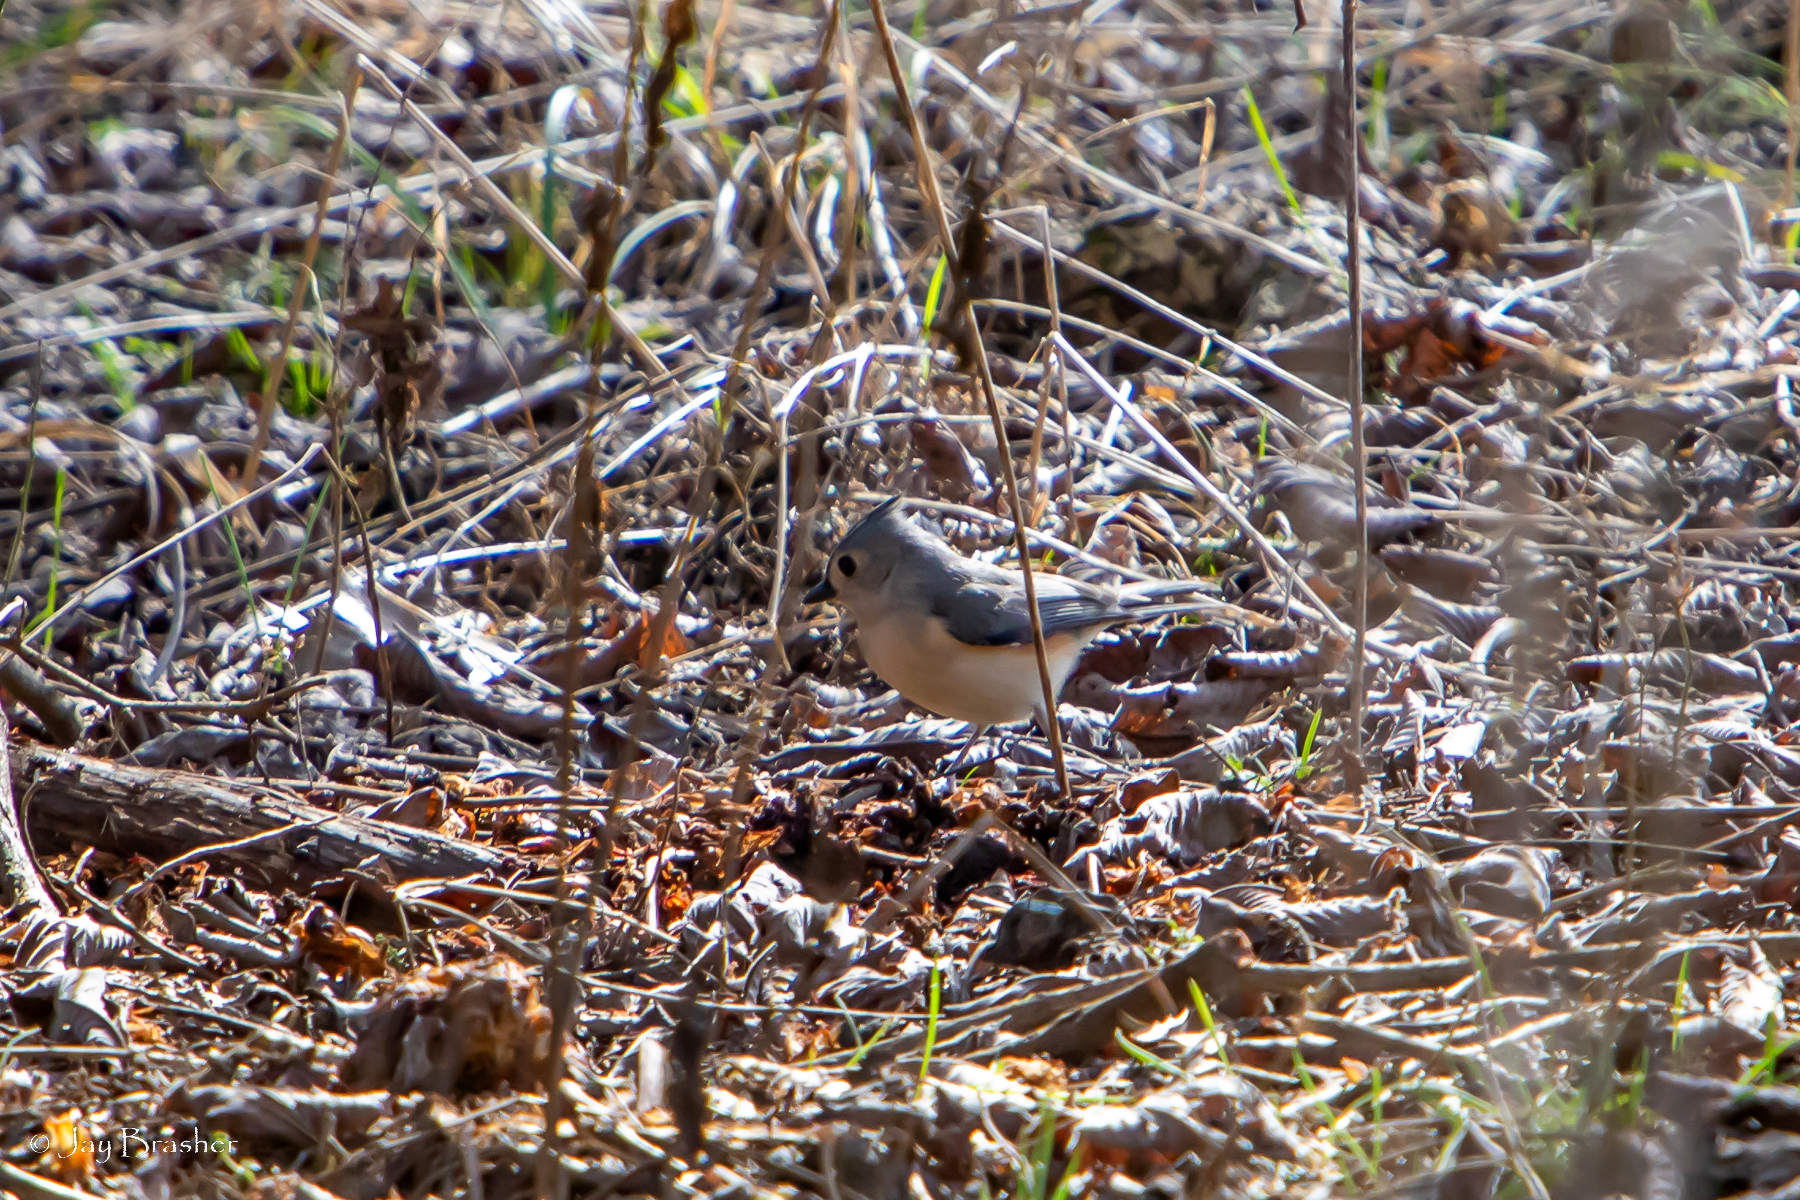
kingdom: Animalia
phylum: Chordata
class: Aves
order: Passeriformes
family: Paridae
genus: Baeolophus
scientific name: Baeolophus bicolor
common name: Tufted titmouse
